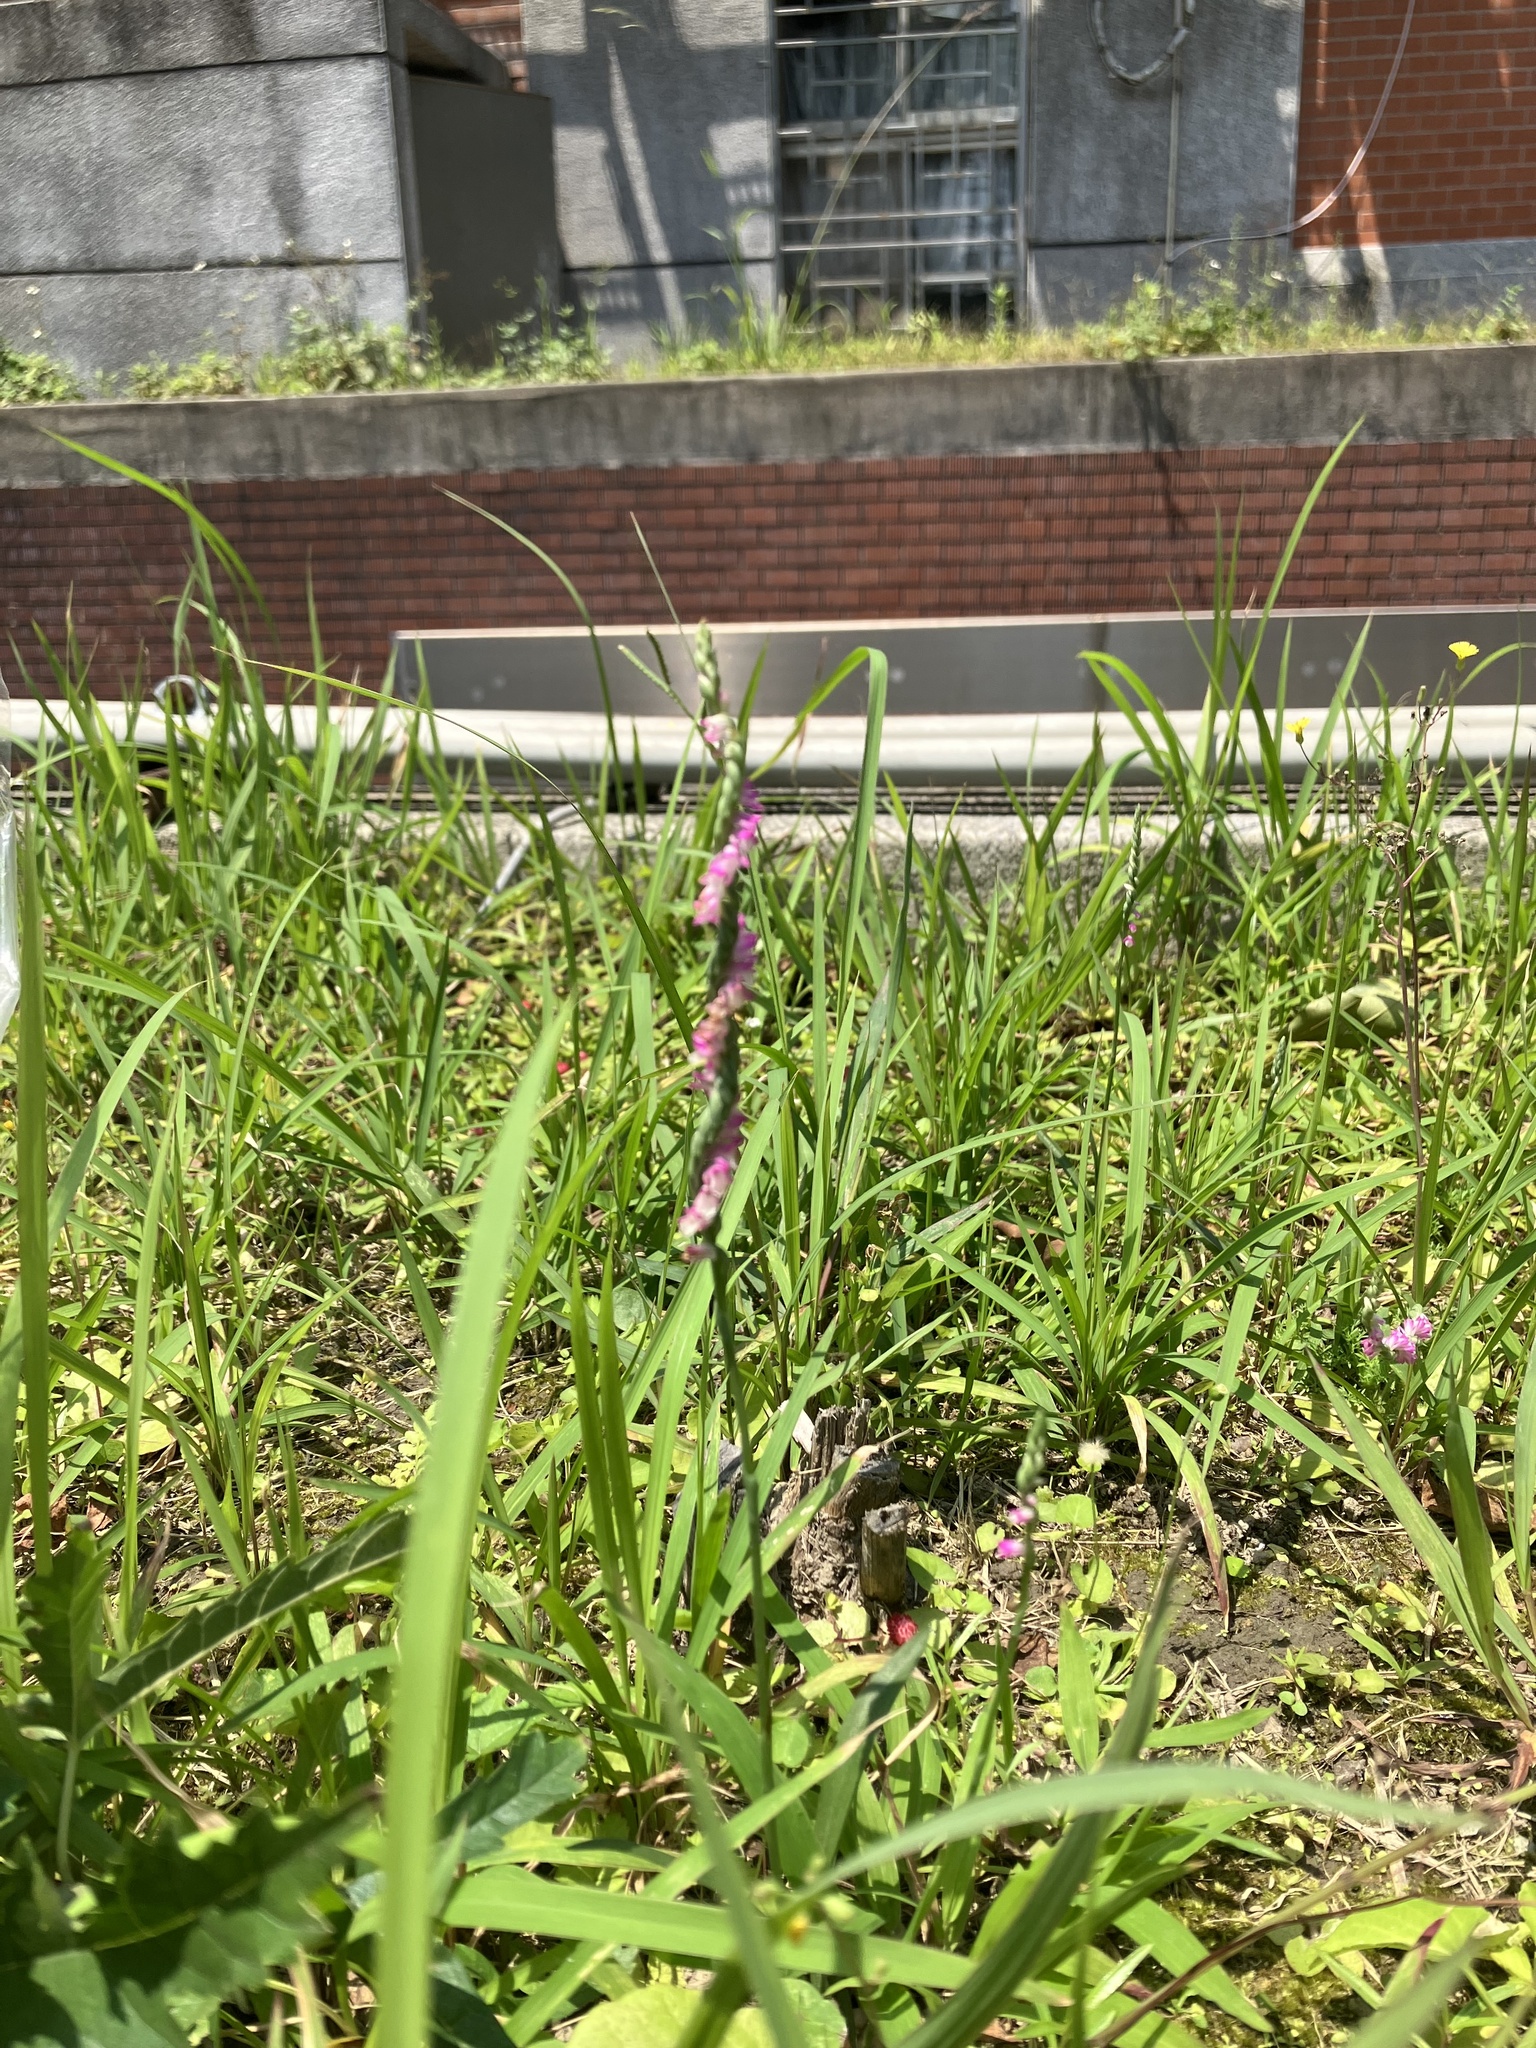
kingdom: Plantae
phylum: Tracheophyta
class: Liliopsida
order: Asparagales
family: Orchidaceae
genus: Spiranthes
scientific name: Spiranthes sinensis
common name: Chinese spiranthes
